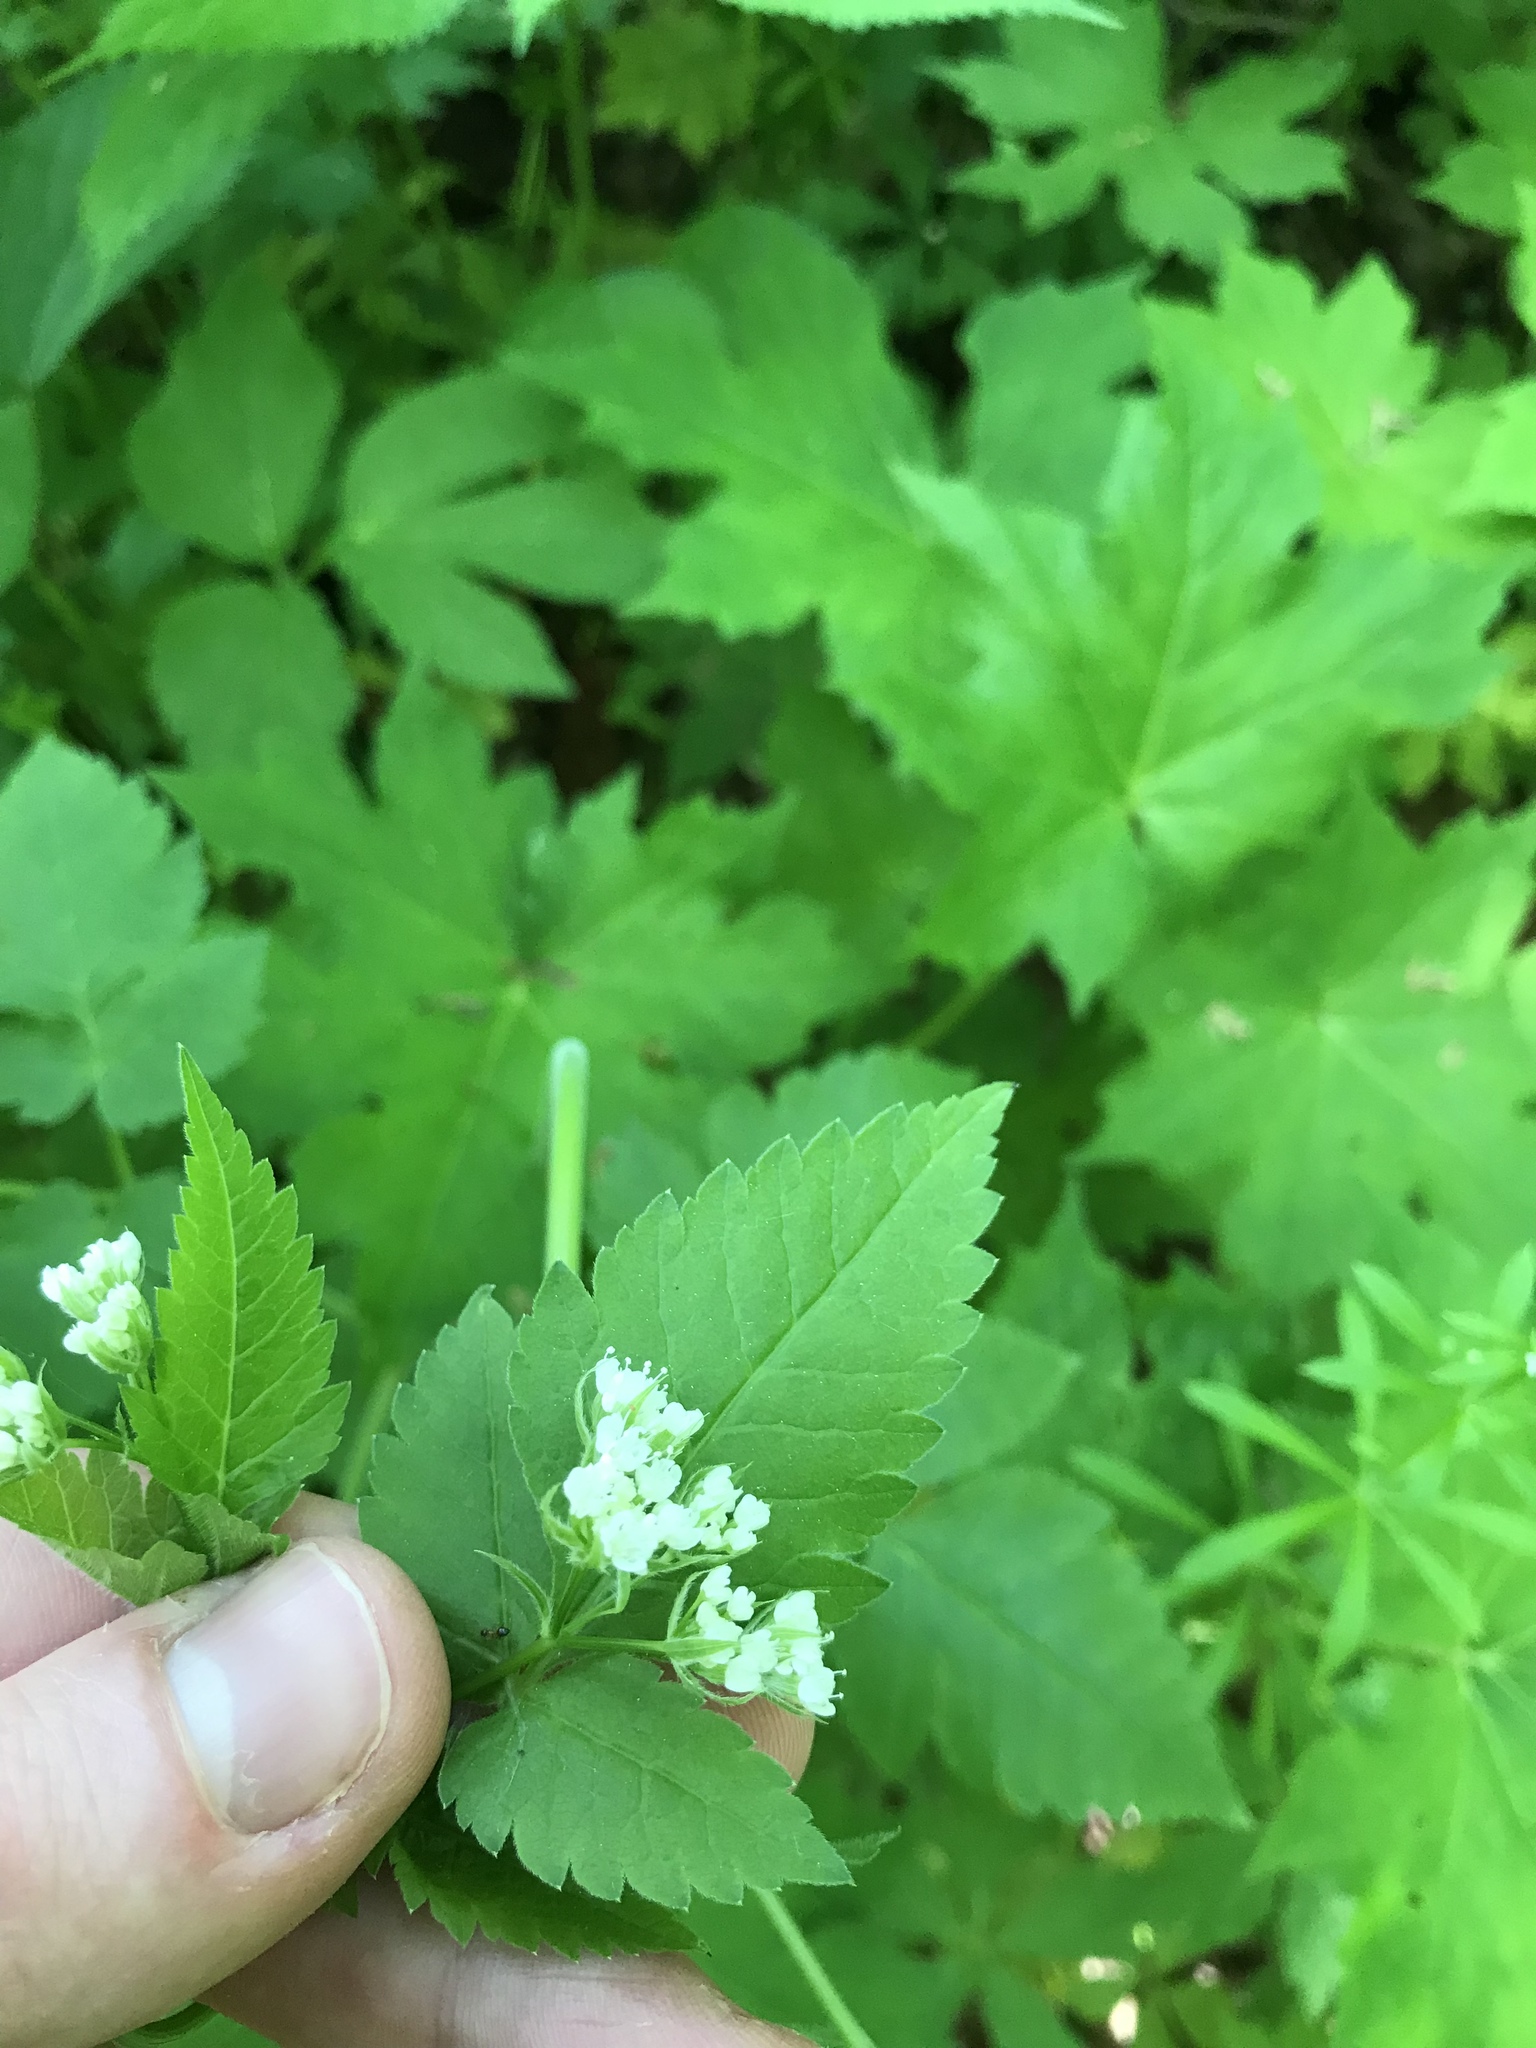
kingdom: Plantae
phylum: Tracheophyta
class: Magnoliopsida
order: Apiales
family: Apiaceae
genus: Osmorhiza
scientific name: Osmorhiza longistylis
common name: Smooth sweet cicely
